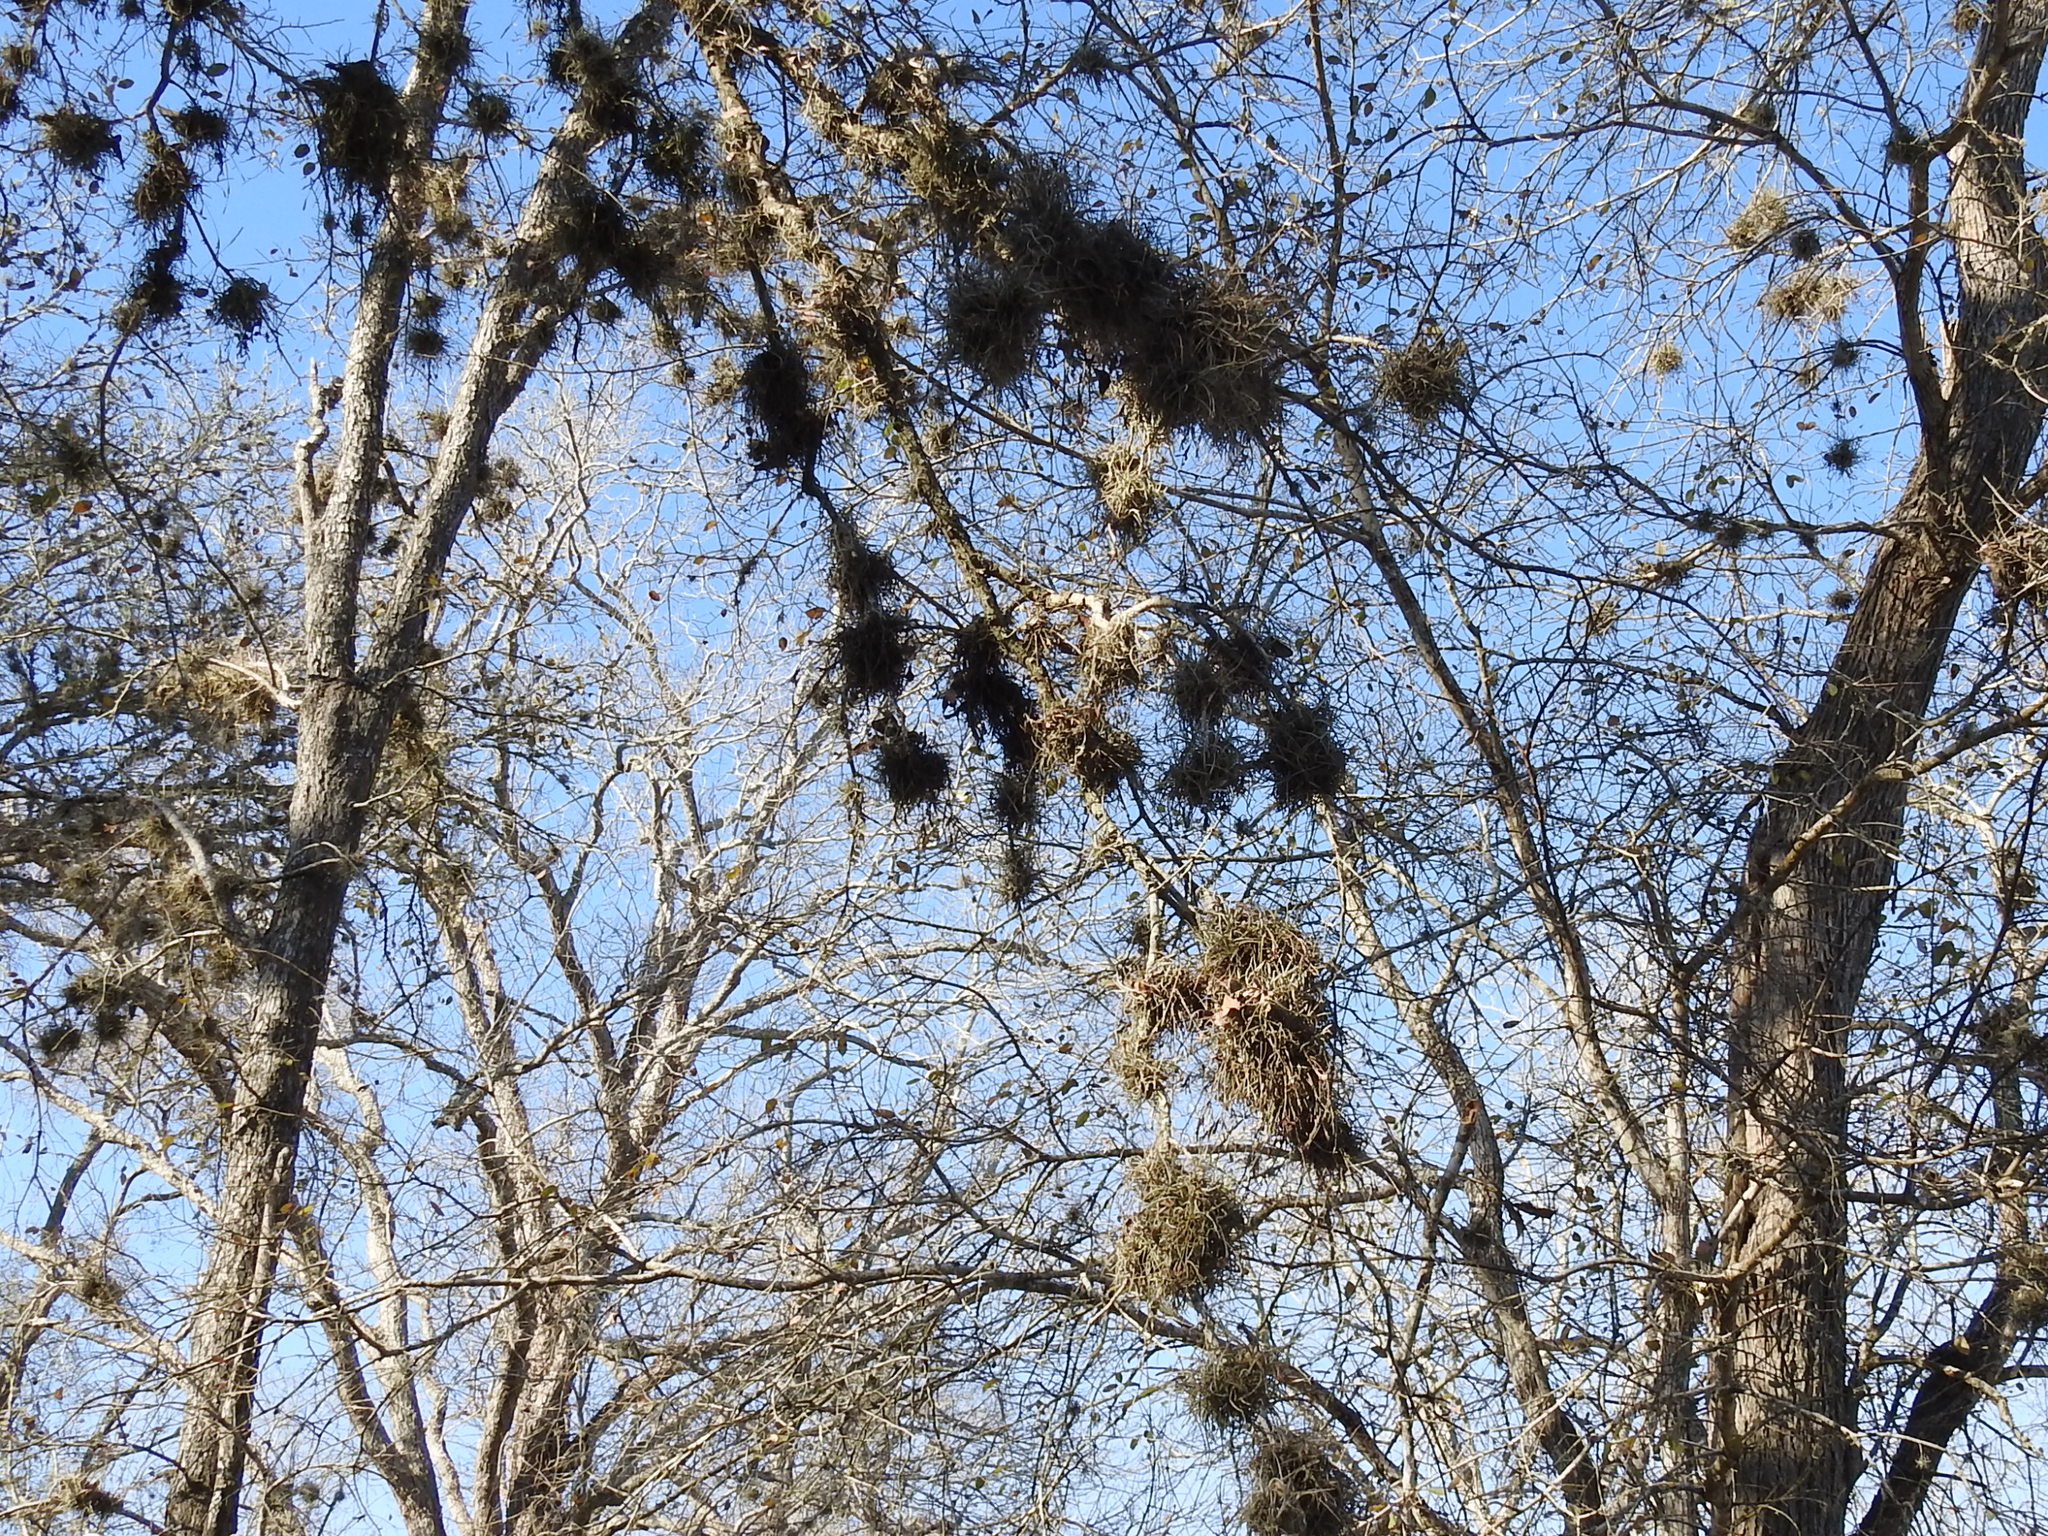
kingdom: Plantae
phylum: Tracheophyta
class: Liliopsida
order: Poales
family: Bromeliaceae
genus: Tillandsia
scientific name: Tillandsia recurvata
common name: Small ballmoss
